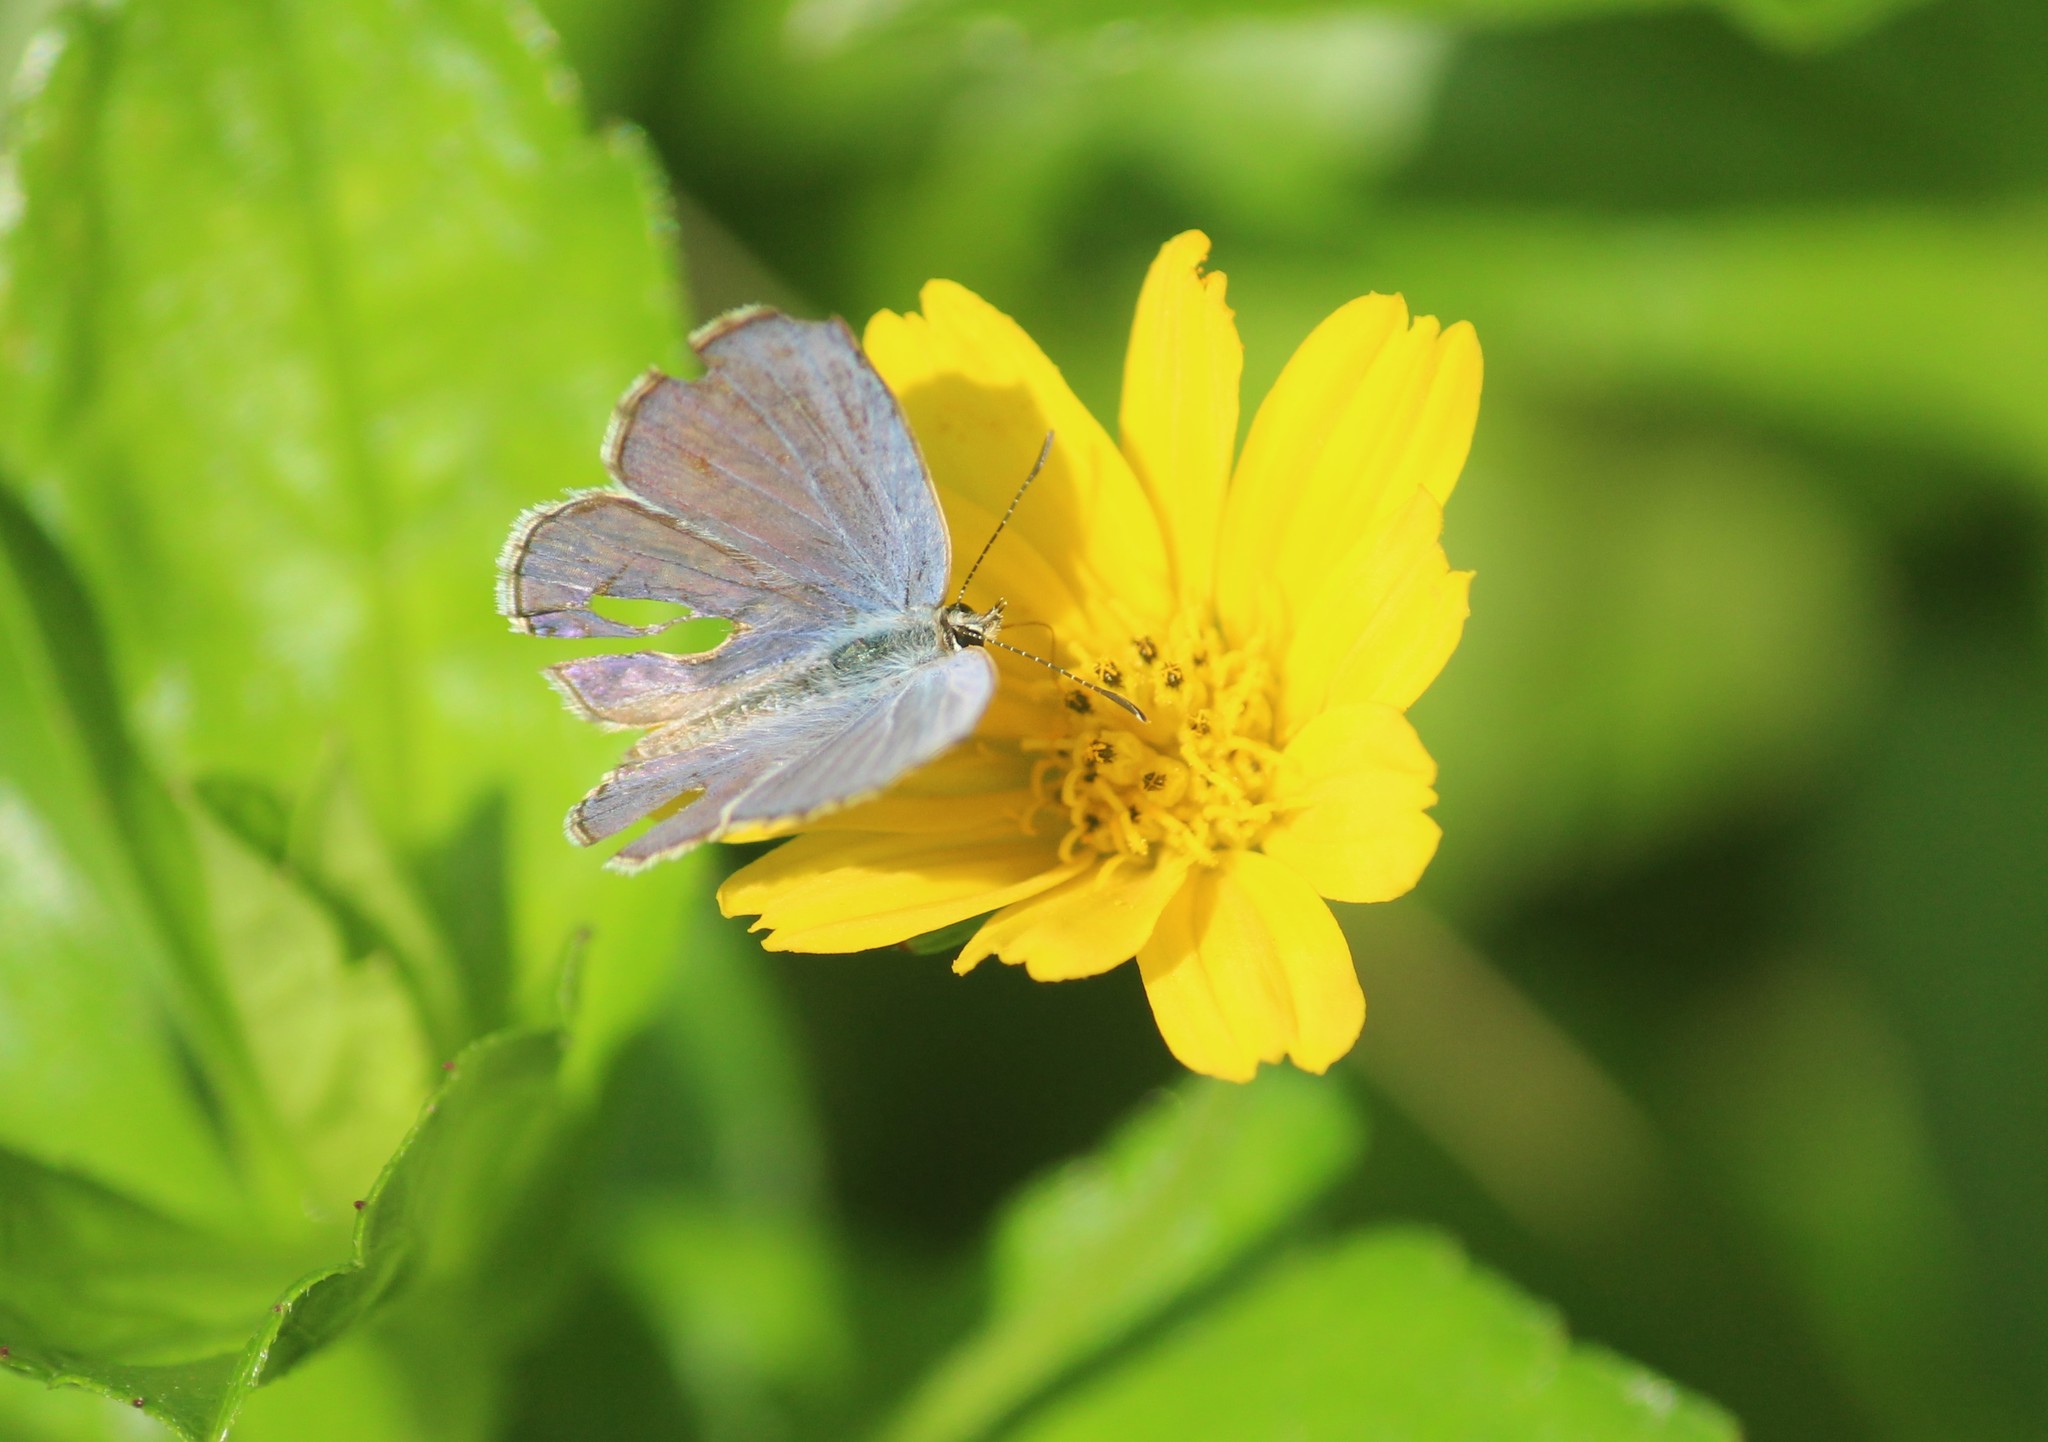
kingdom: Animalia
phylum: Arthropoda
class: Insecta
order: Lepidoptera
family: Lycaenidae
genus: Chilades
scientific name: Chilades laius
